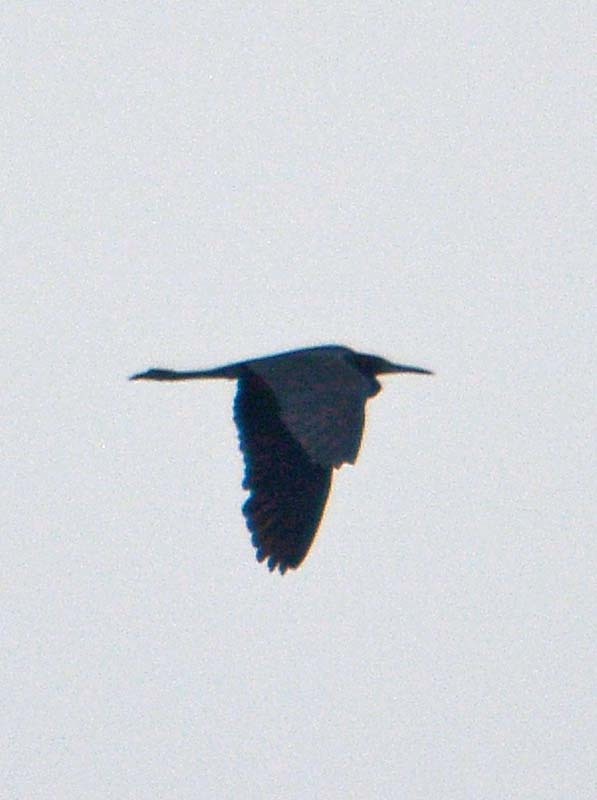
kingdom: Animalia
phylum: Chordata
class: Aves
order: Pelecaniformes
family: Ardeidae
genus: Egretta
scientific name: Egretta caerulea
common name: Little blue heron
